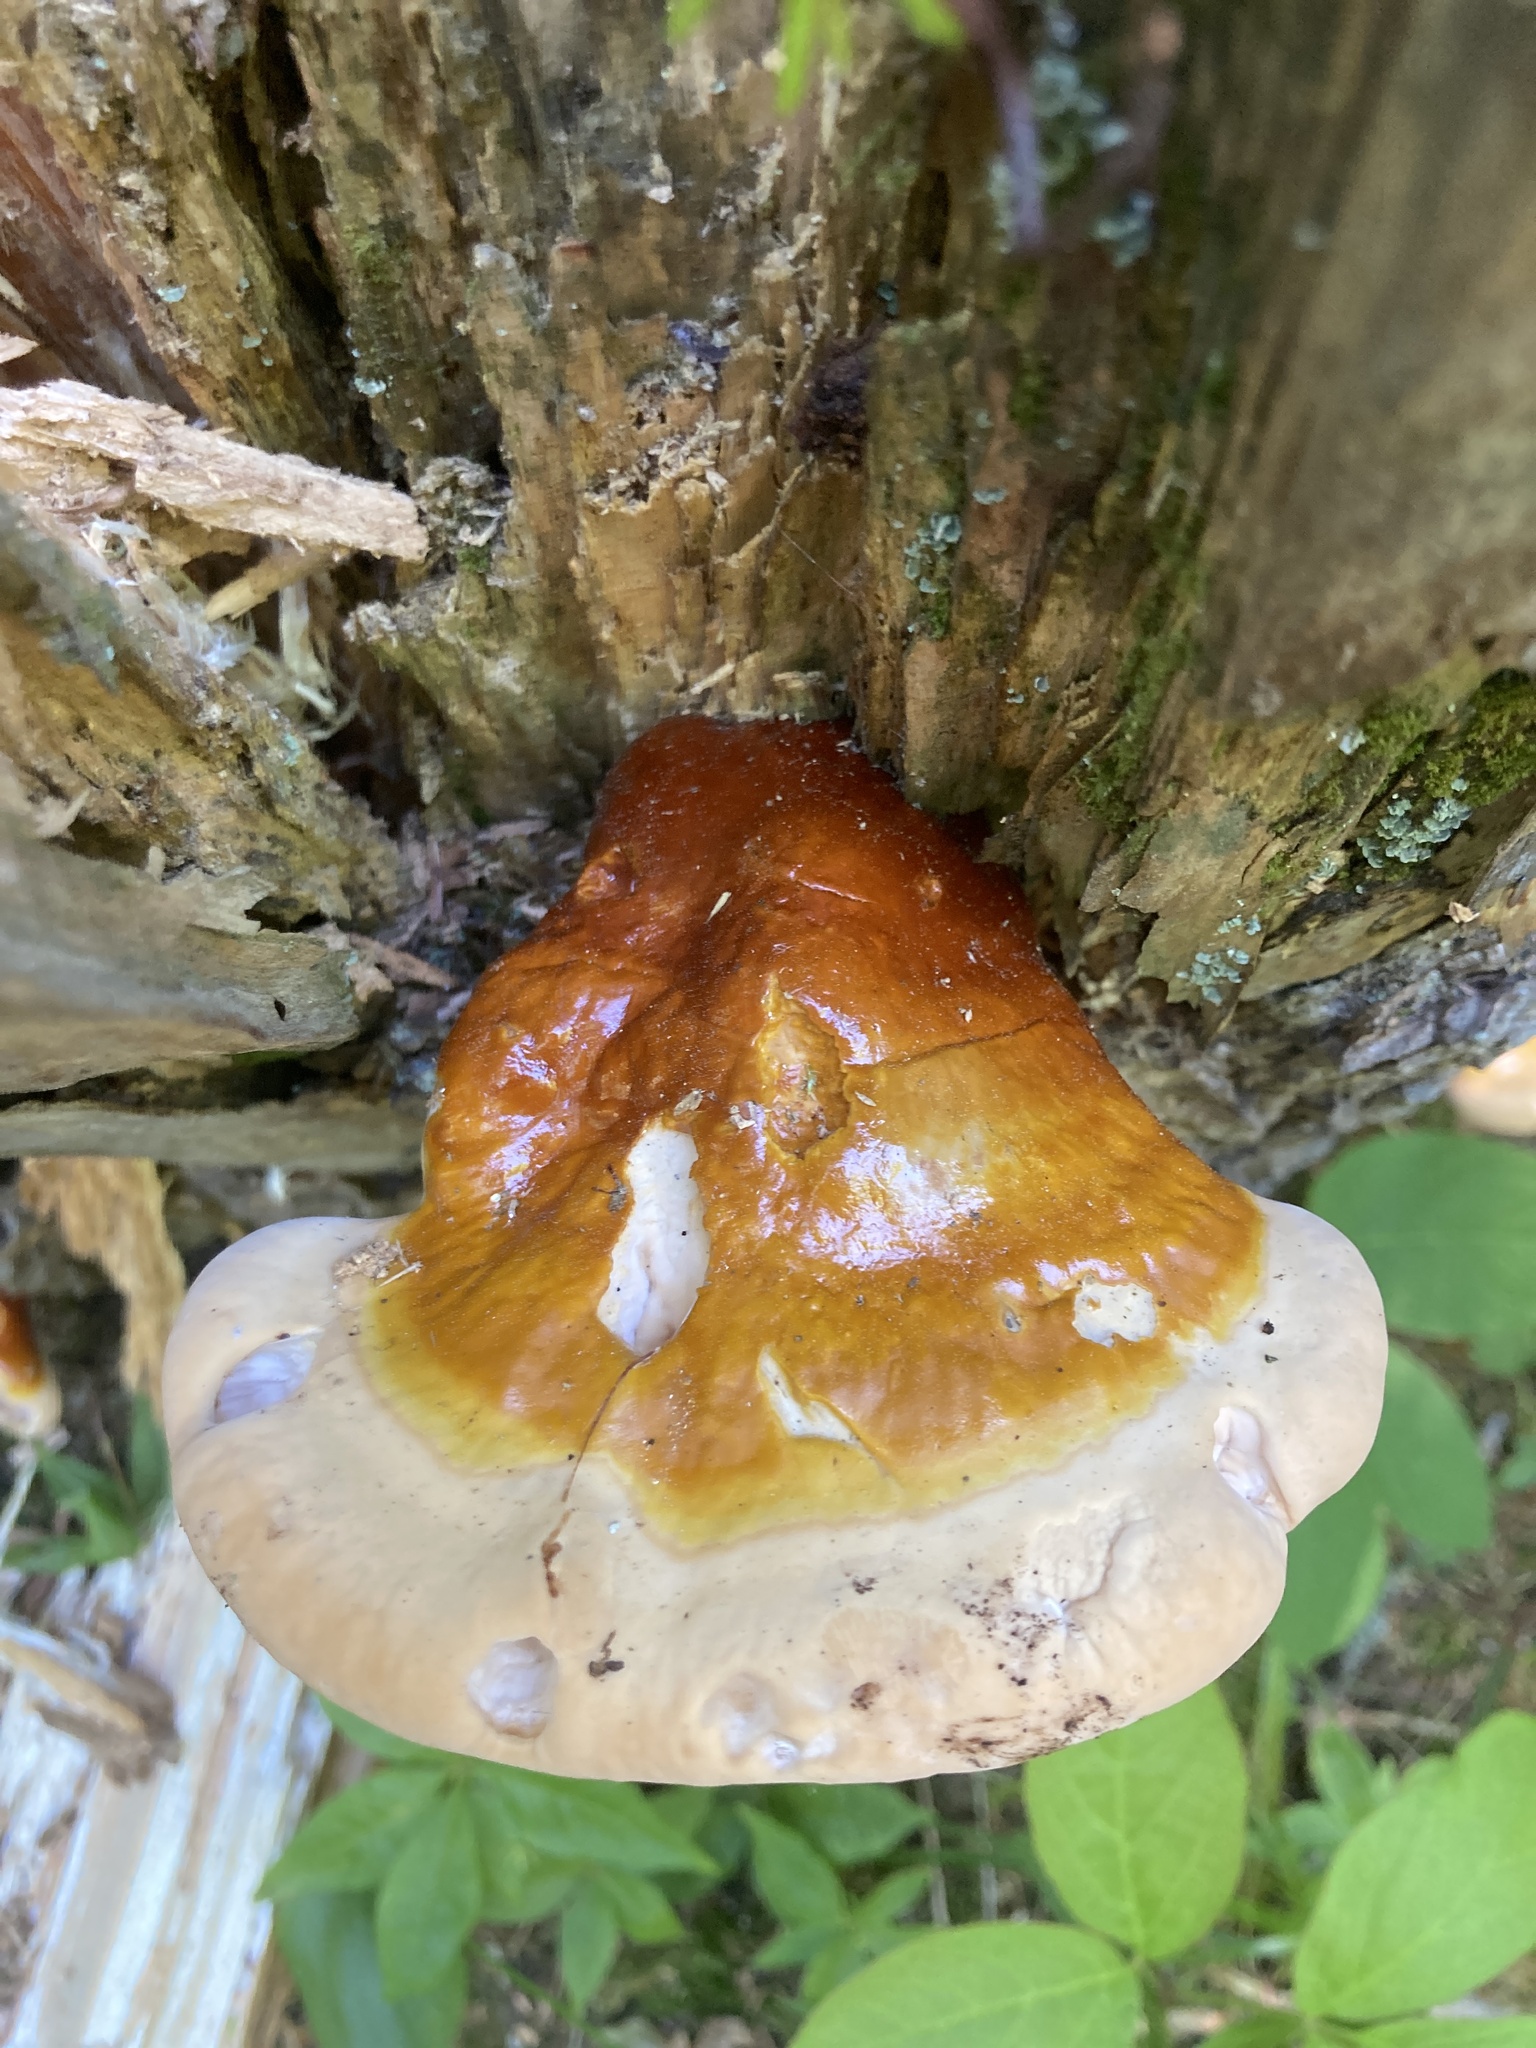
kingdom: Fungi
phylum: Basidiomycota
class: Agaricomycetes
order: Polyporales
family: Polyporaceae
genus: Ganoderma
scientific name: Ganoderma tsugae
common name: Hemlock varnish shelf
